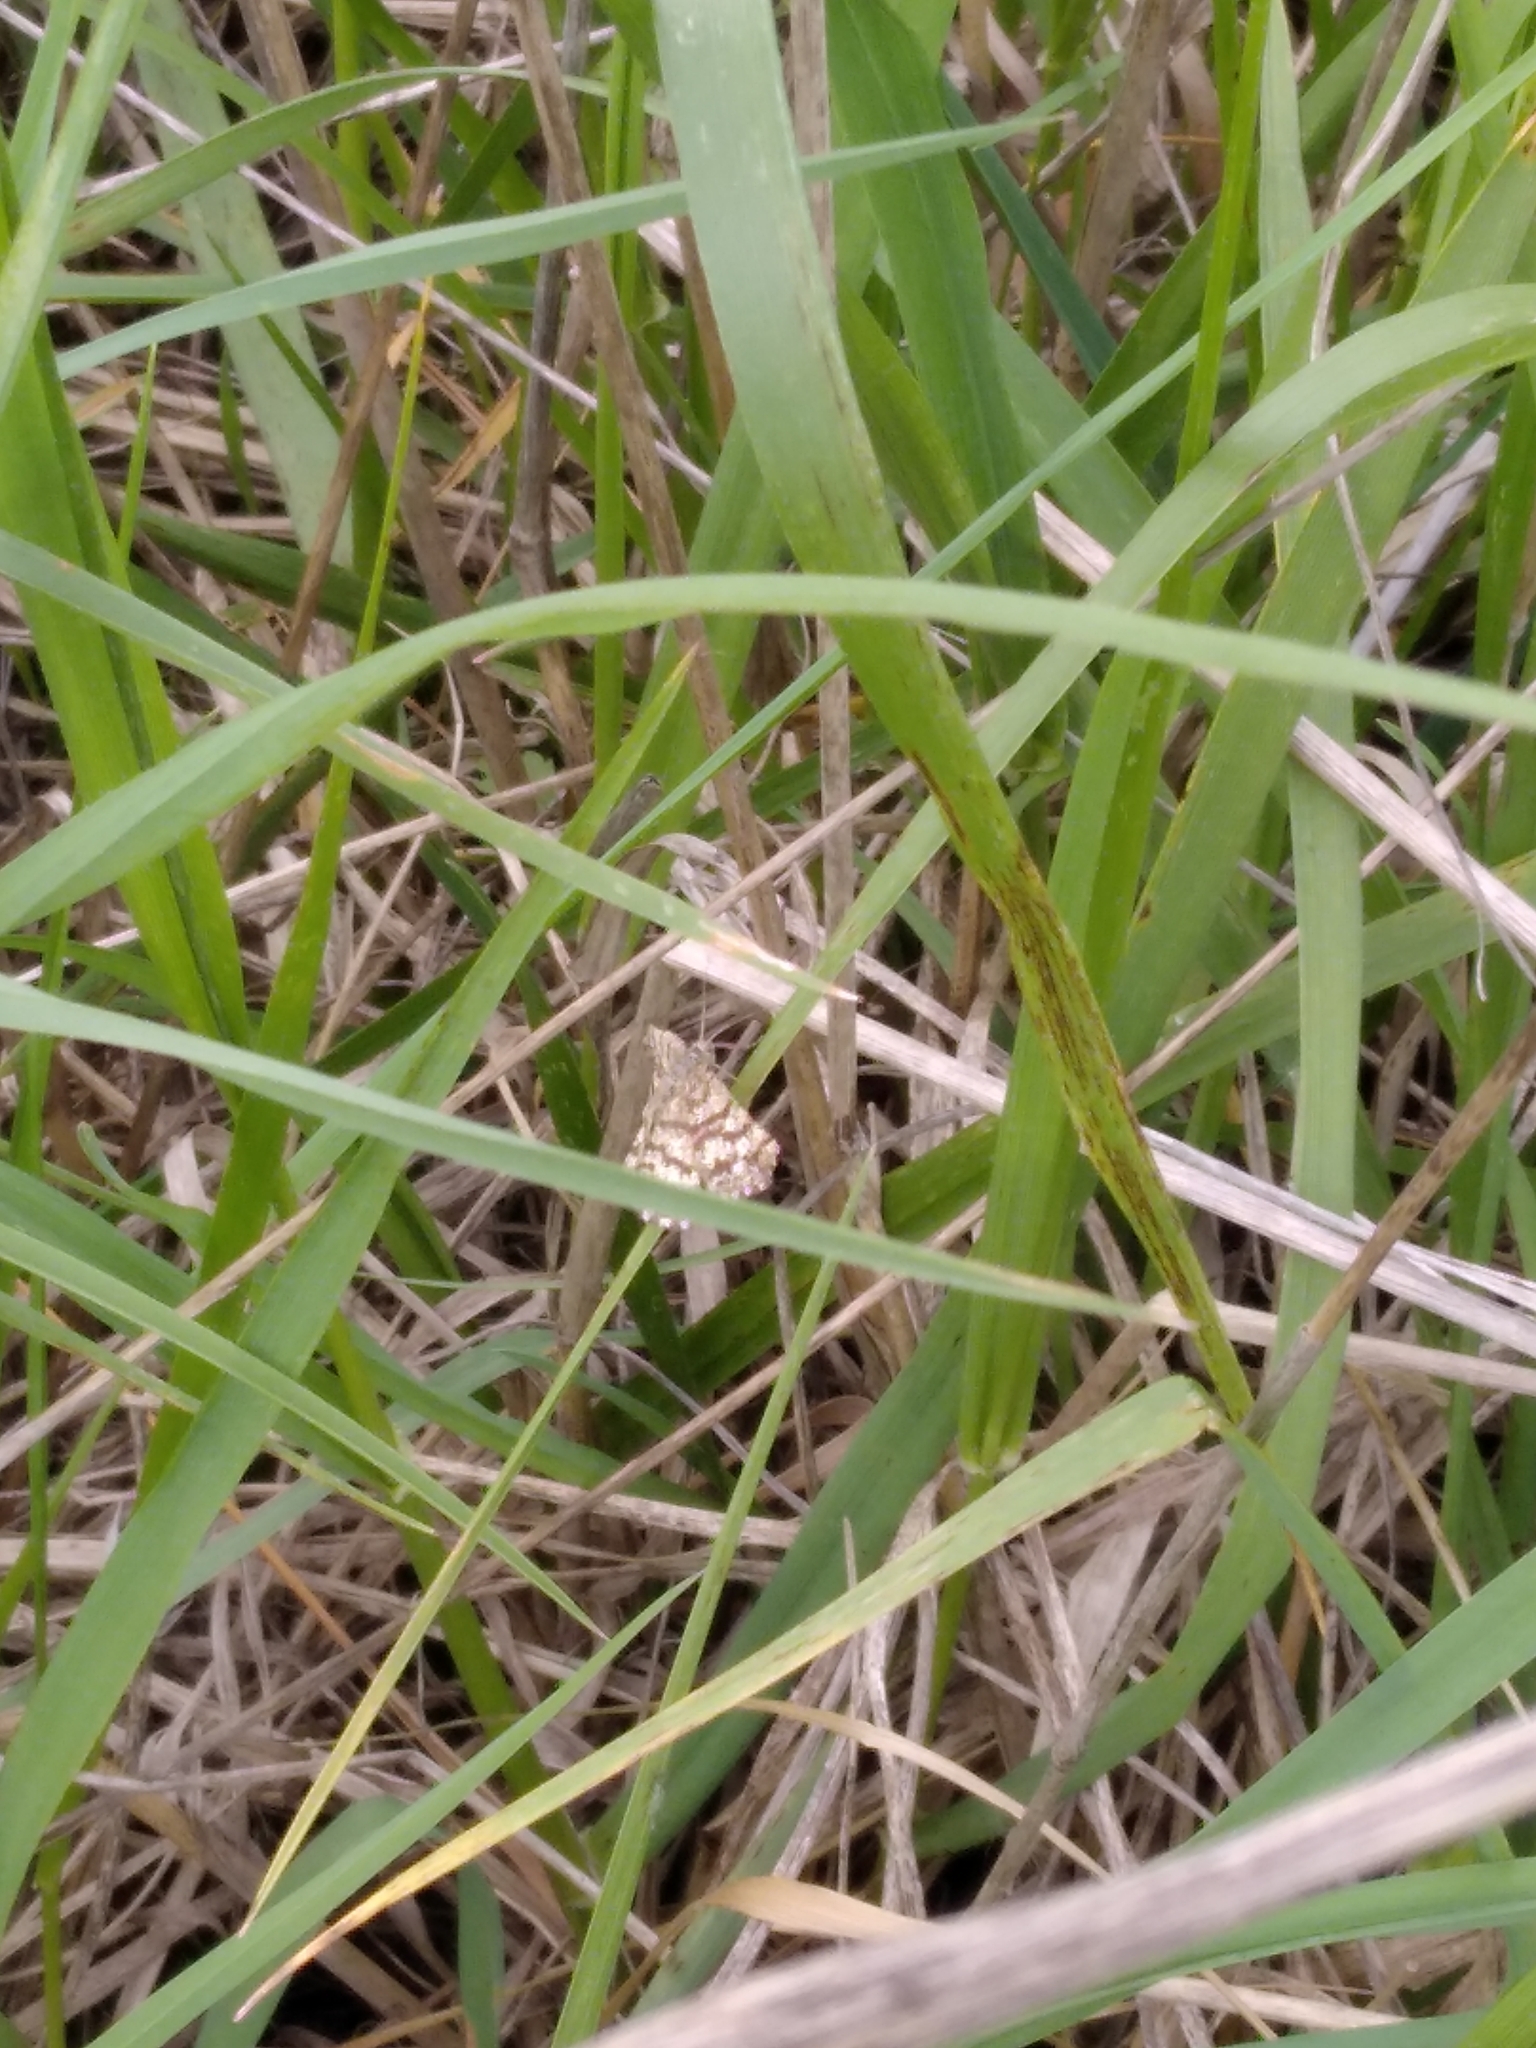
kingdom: Animalia
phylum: Arthropoda
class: Insecta
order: Lepidoptera
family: Geometridae
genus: Ematurga
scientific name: Ematurga atomaria
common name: Common heath
